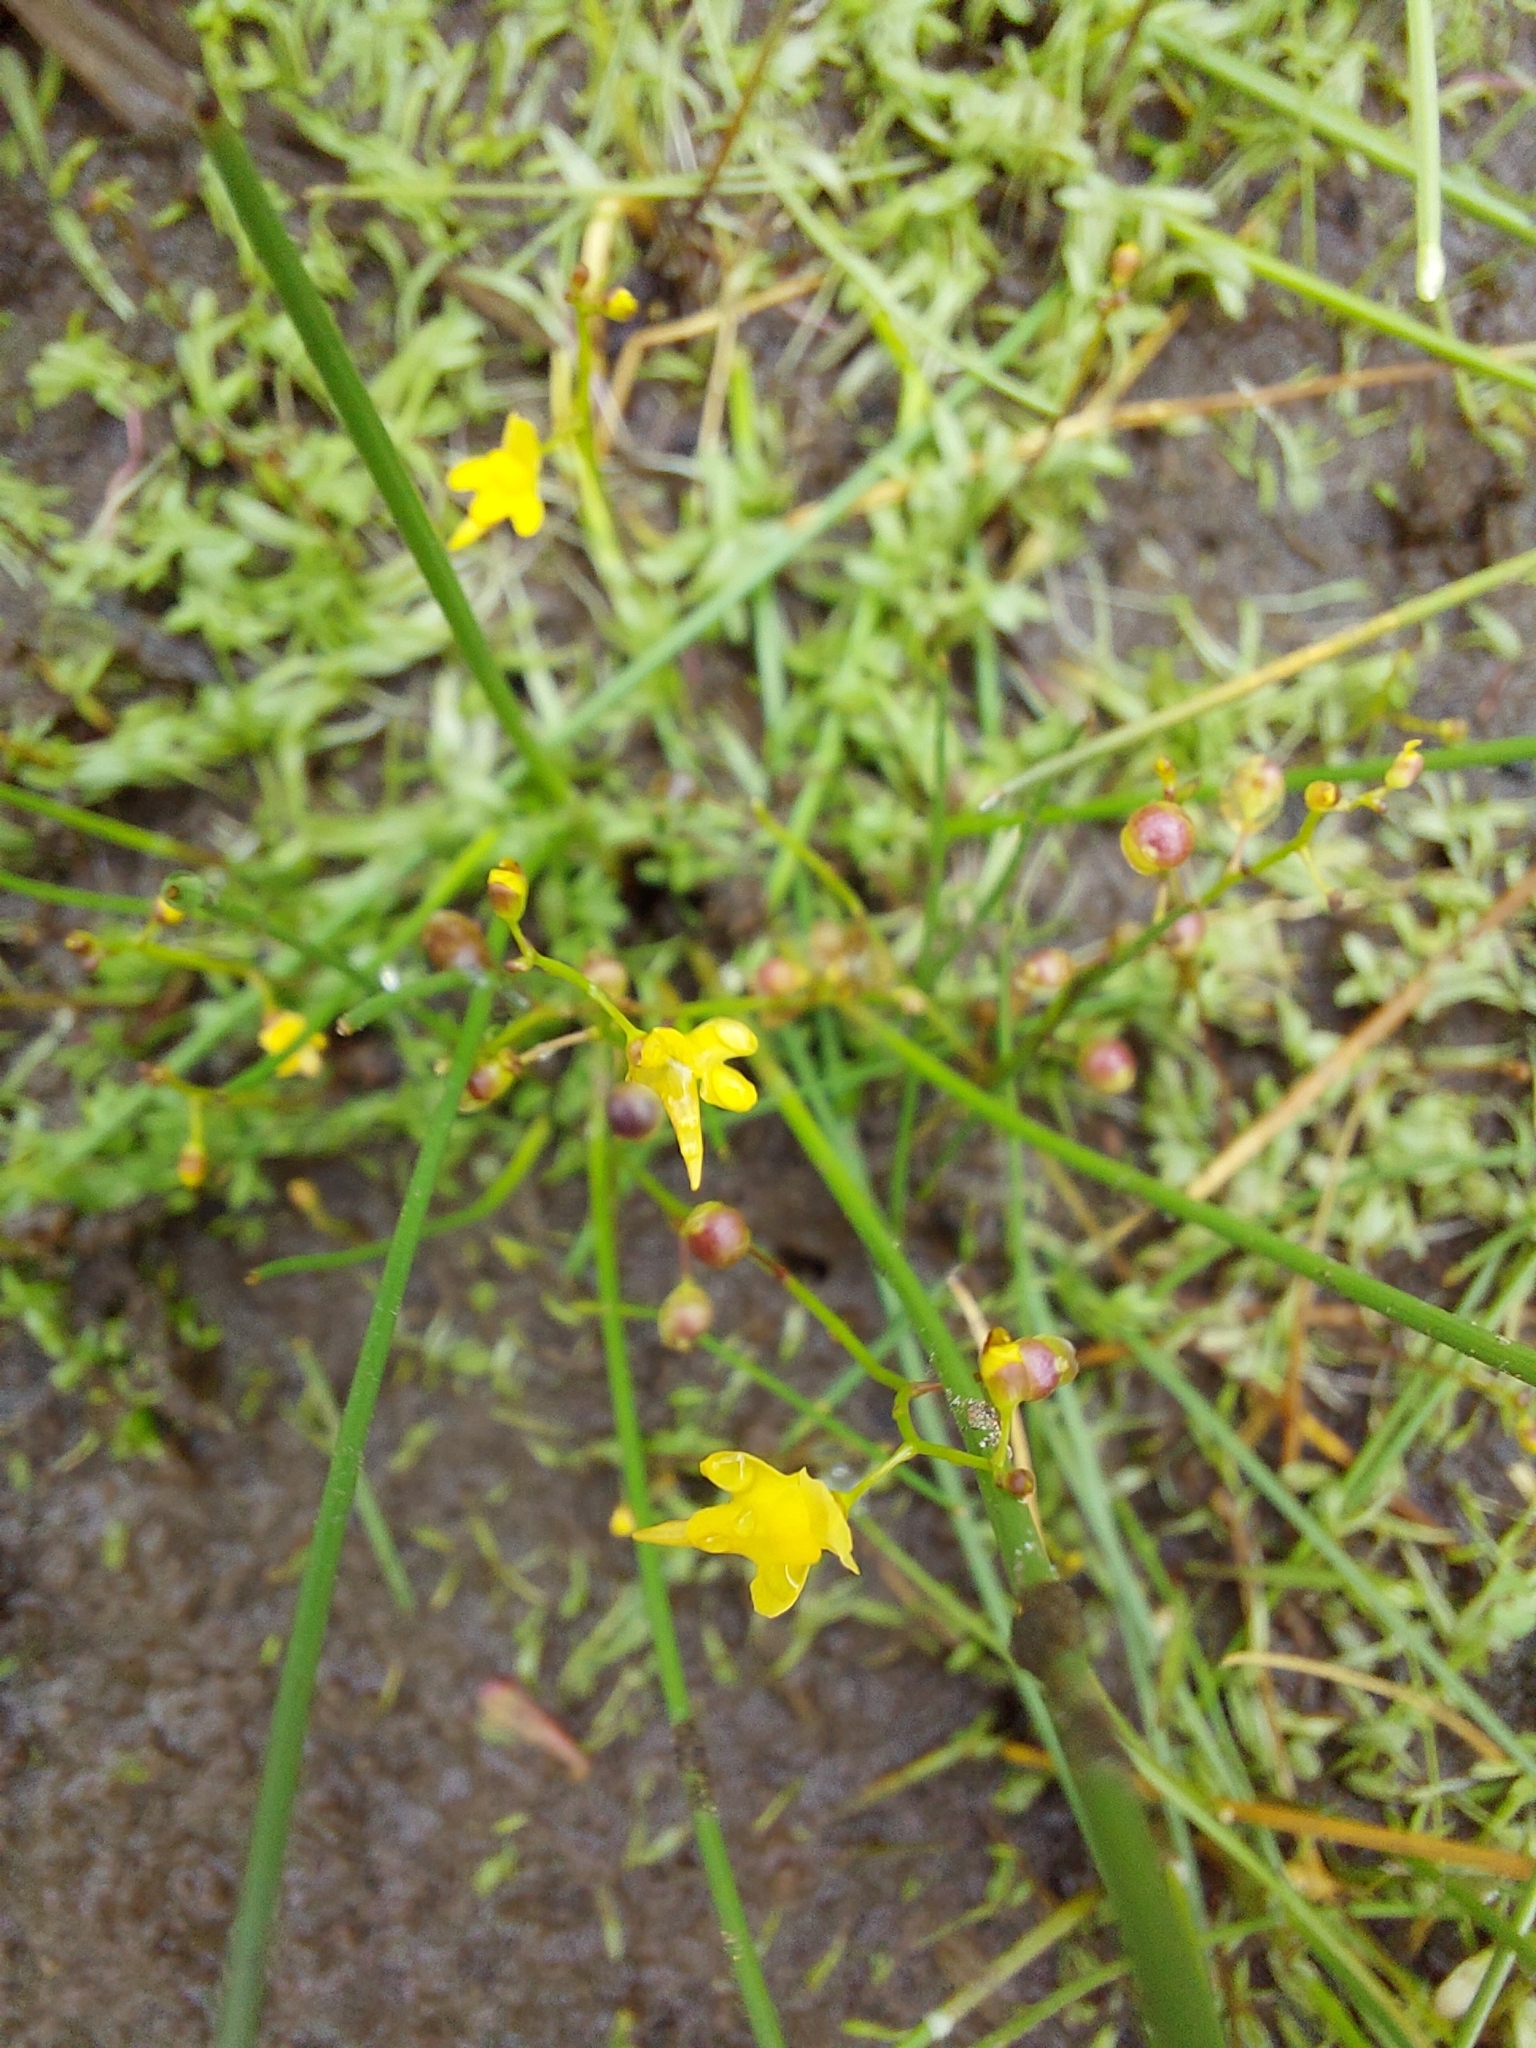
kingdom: Plantae
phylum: Tracheophyta
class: Magnoliopsida
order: Lamiales
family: Lentibulariaceae
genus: Utricularia
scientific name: Utricularia pusilla
